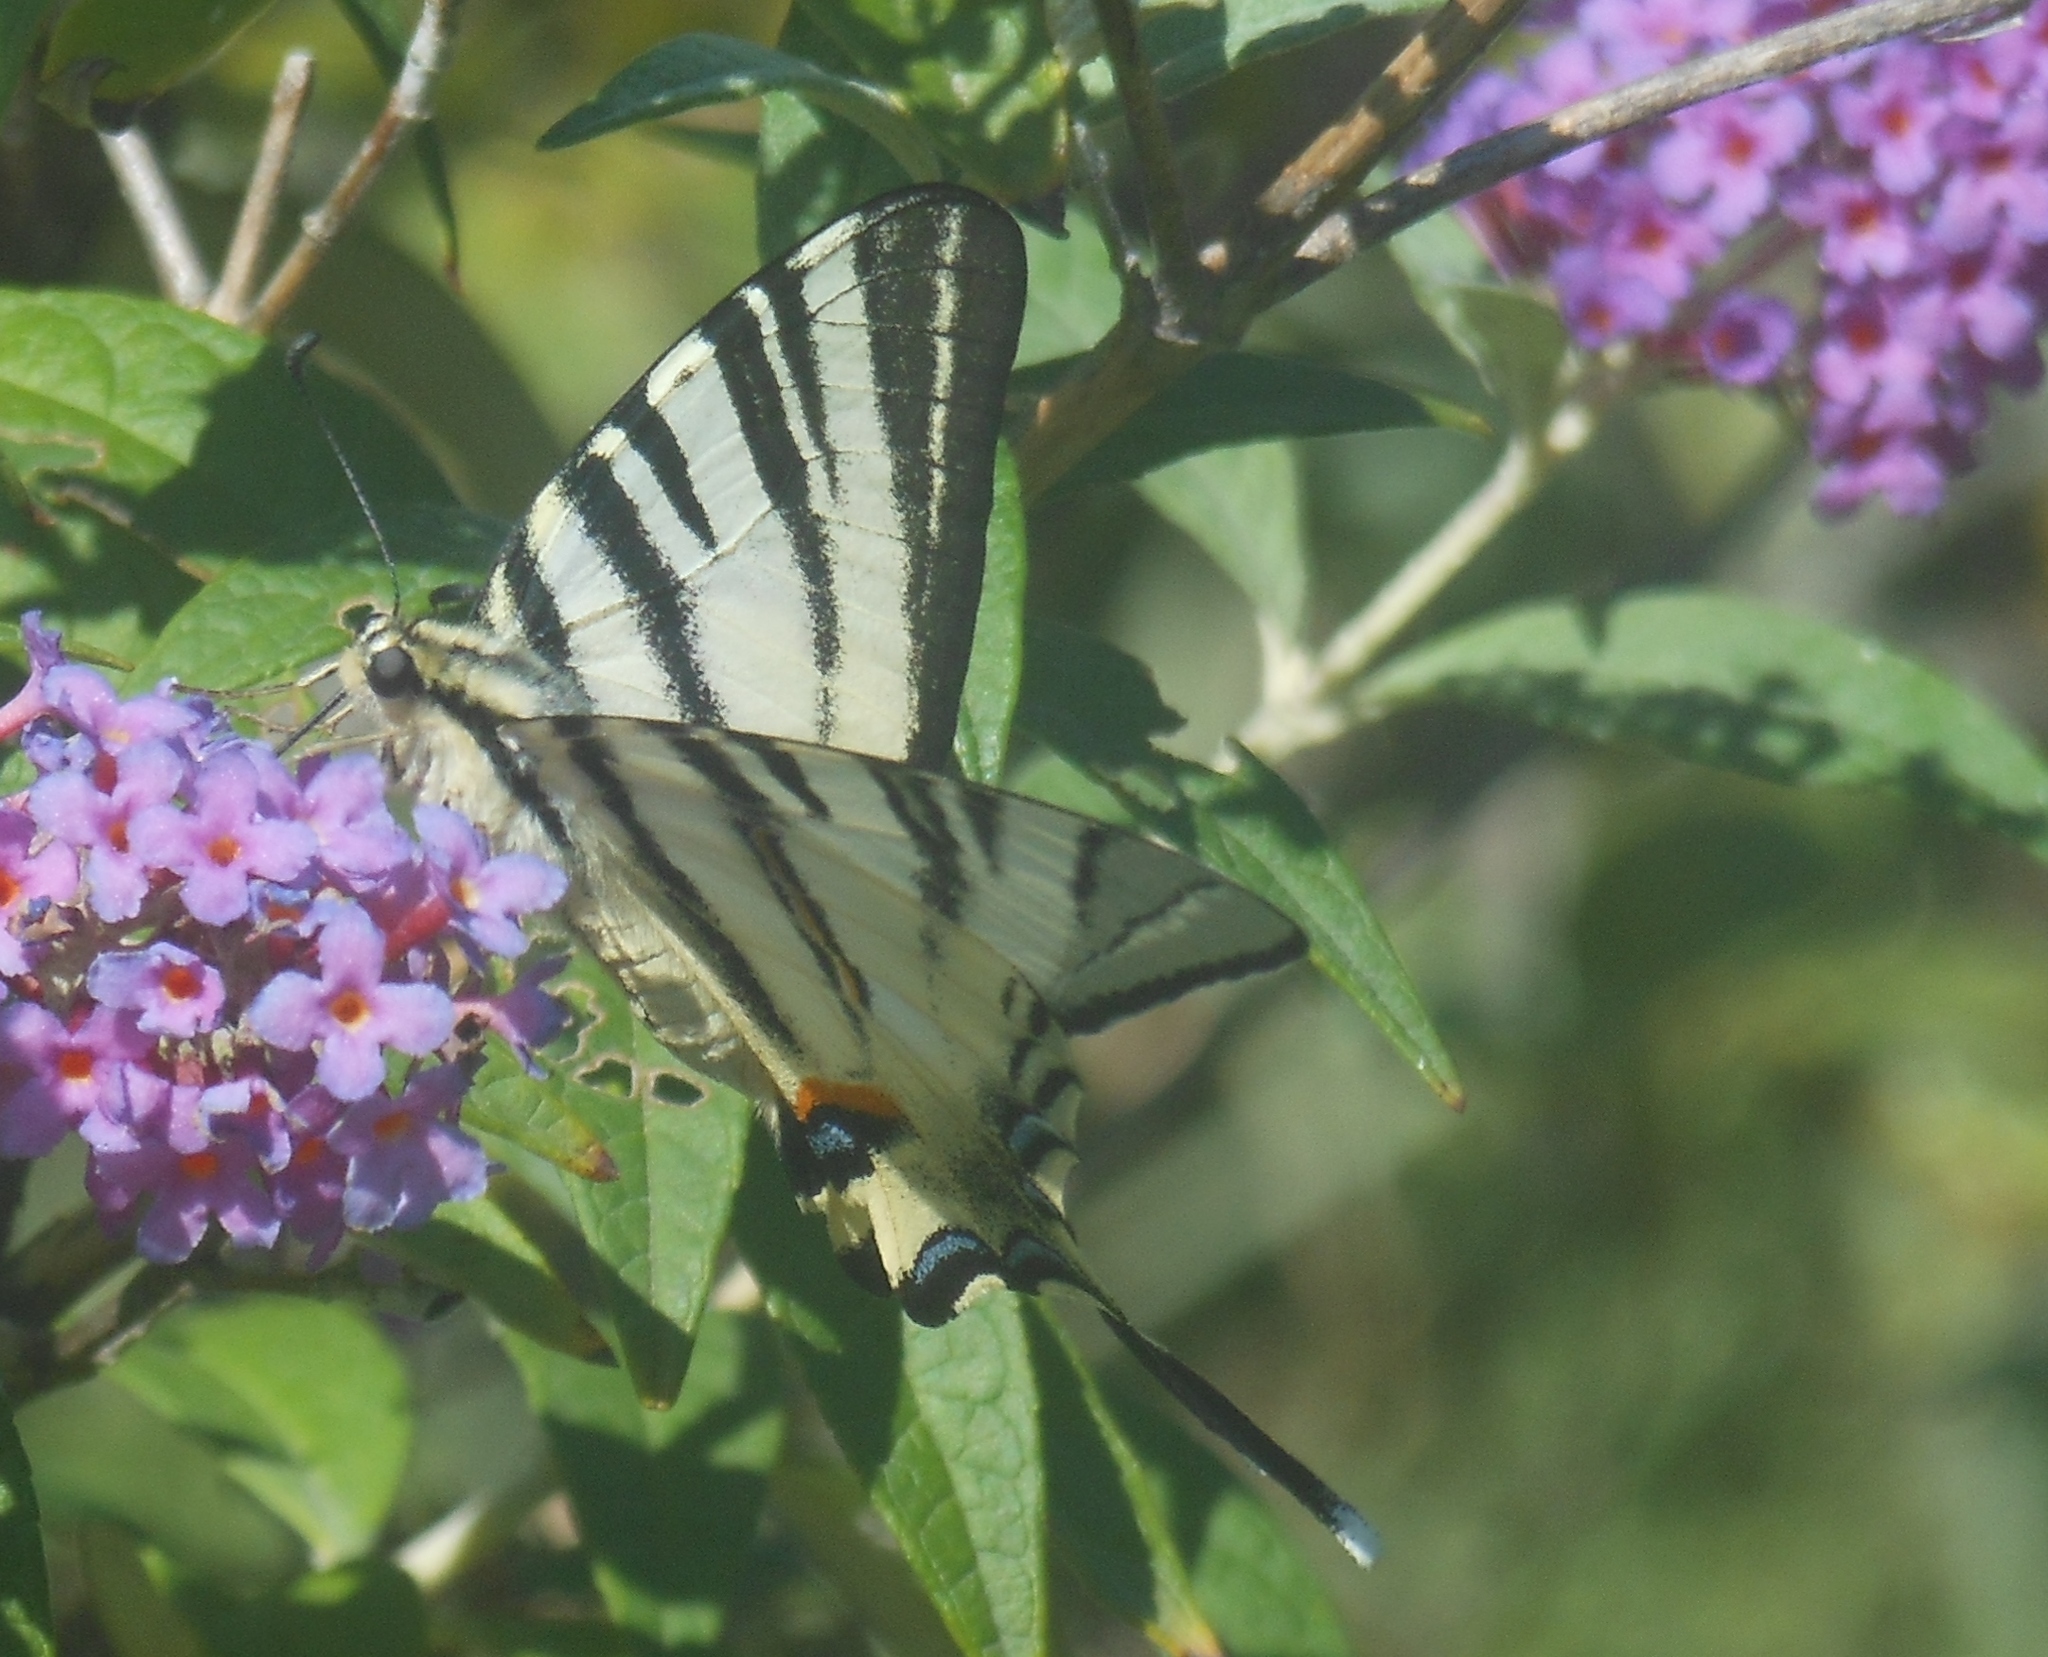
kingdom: Animalia
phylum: Arthropoda
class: Insecta
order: Lepidoptera
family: Papilionidae
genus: Iphiclides
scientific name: Iphiclides podalirius
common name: Scarce swallowtail
